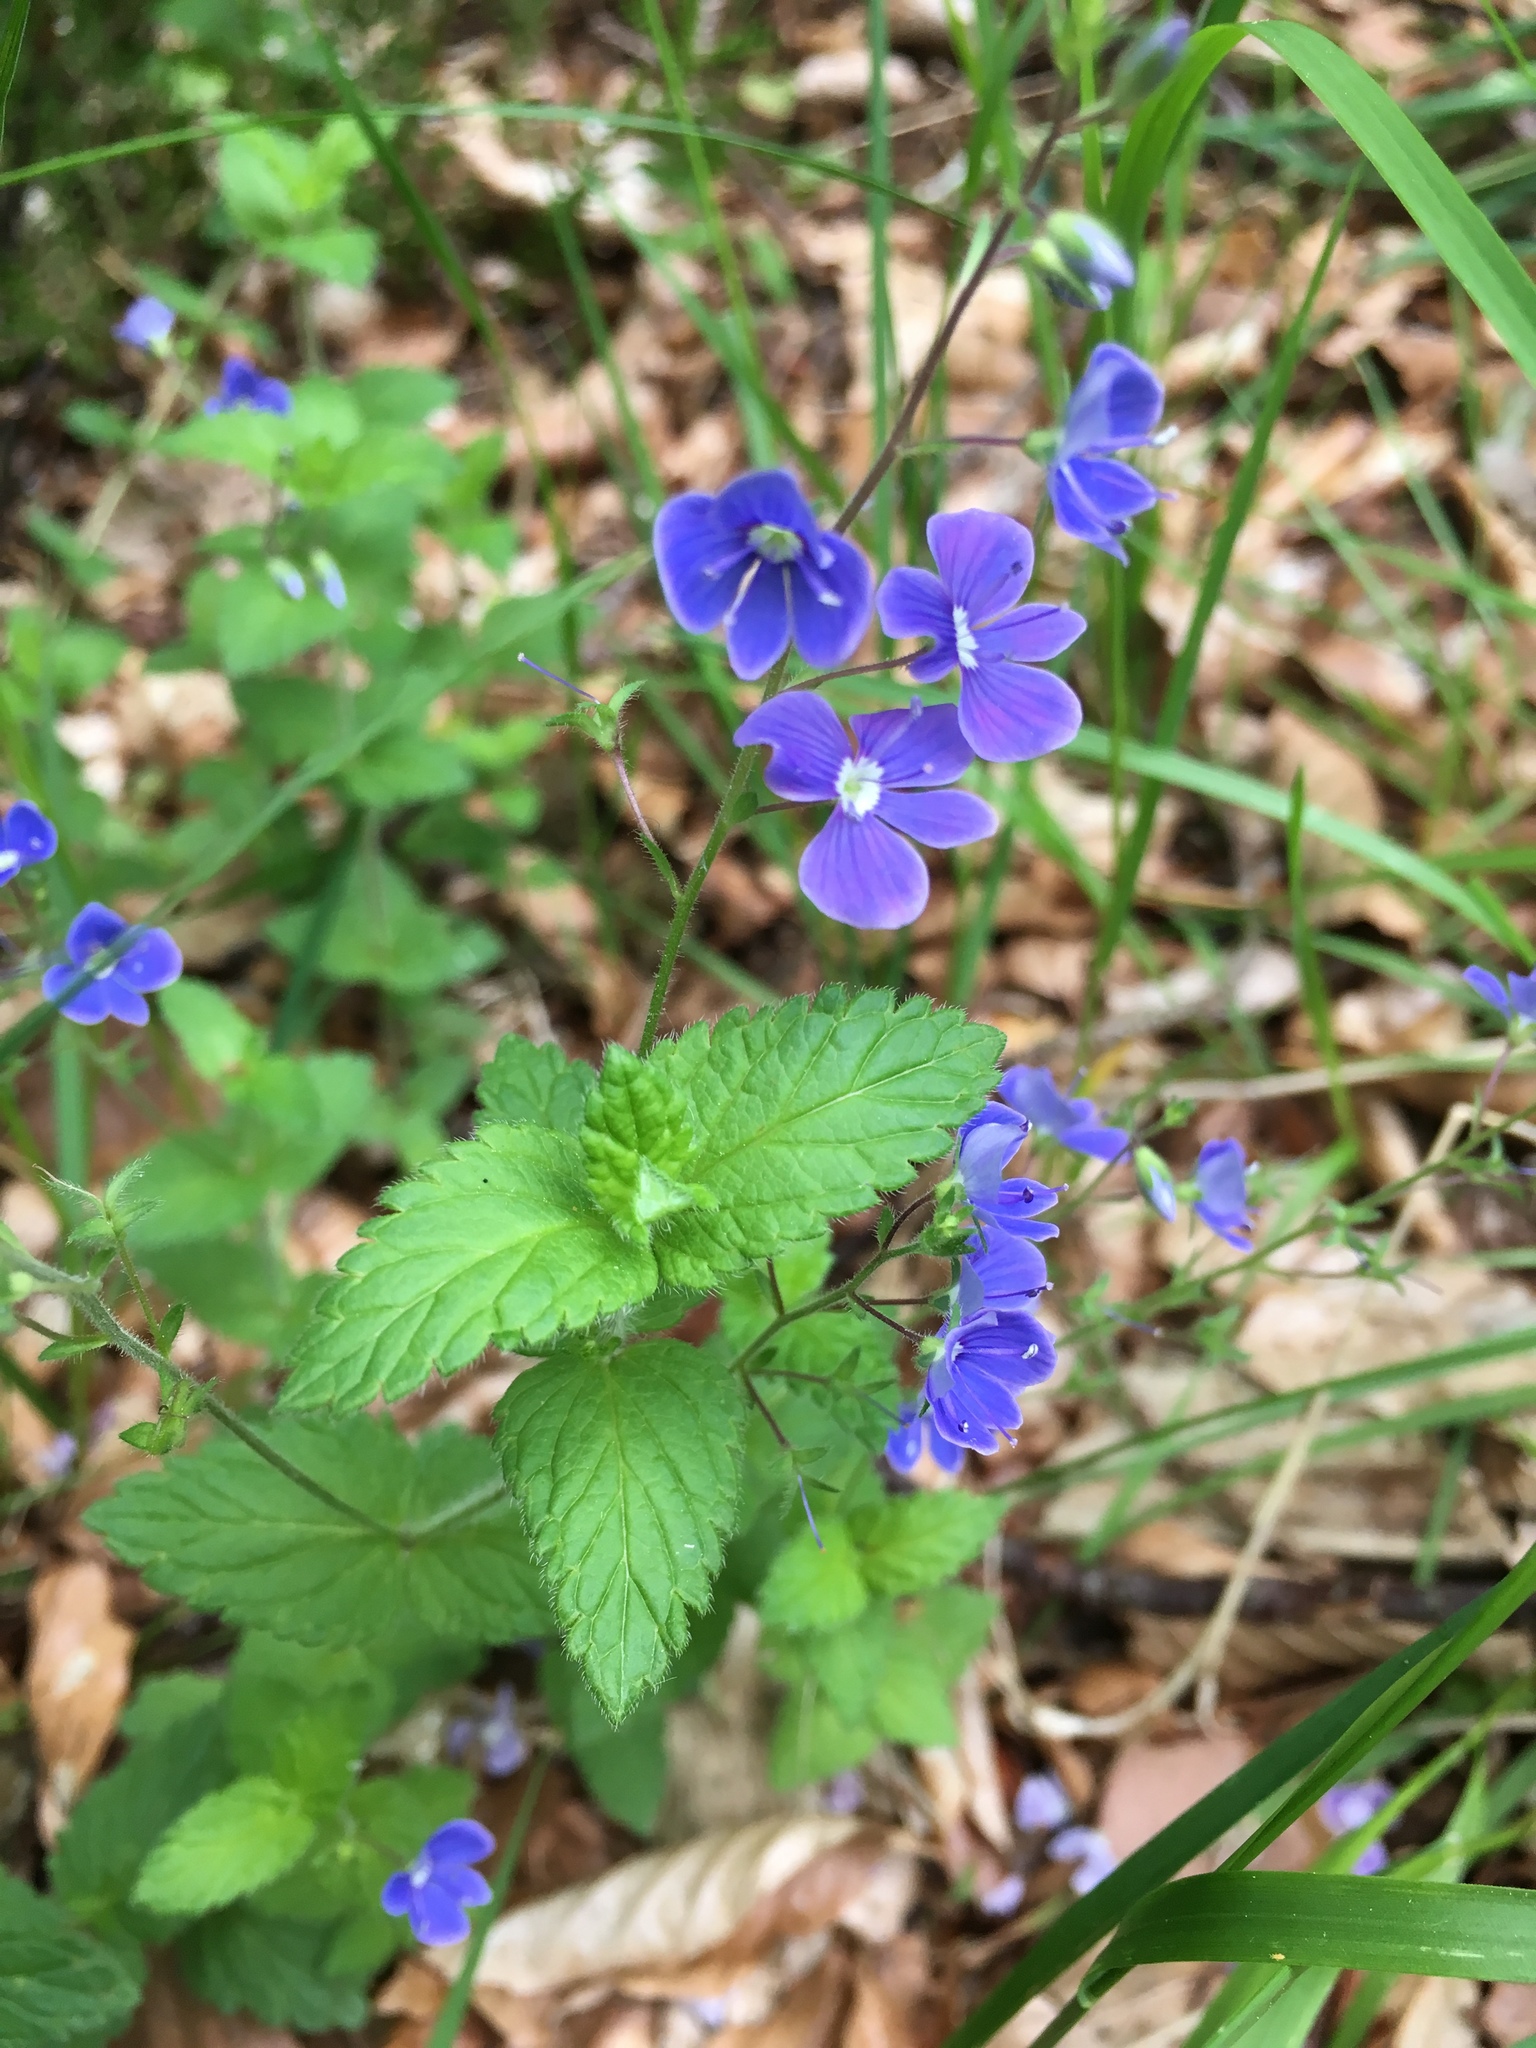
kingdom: Plantae
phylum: Tracheophyta
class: Magnoliopsida
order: Lamiales
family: Plantaginaceae
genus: Veronica
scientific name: Veronica chamaedrys
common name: Germander speedwell
